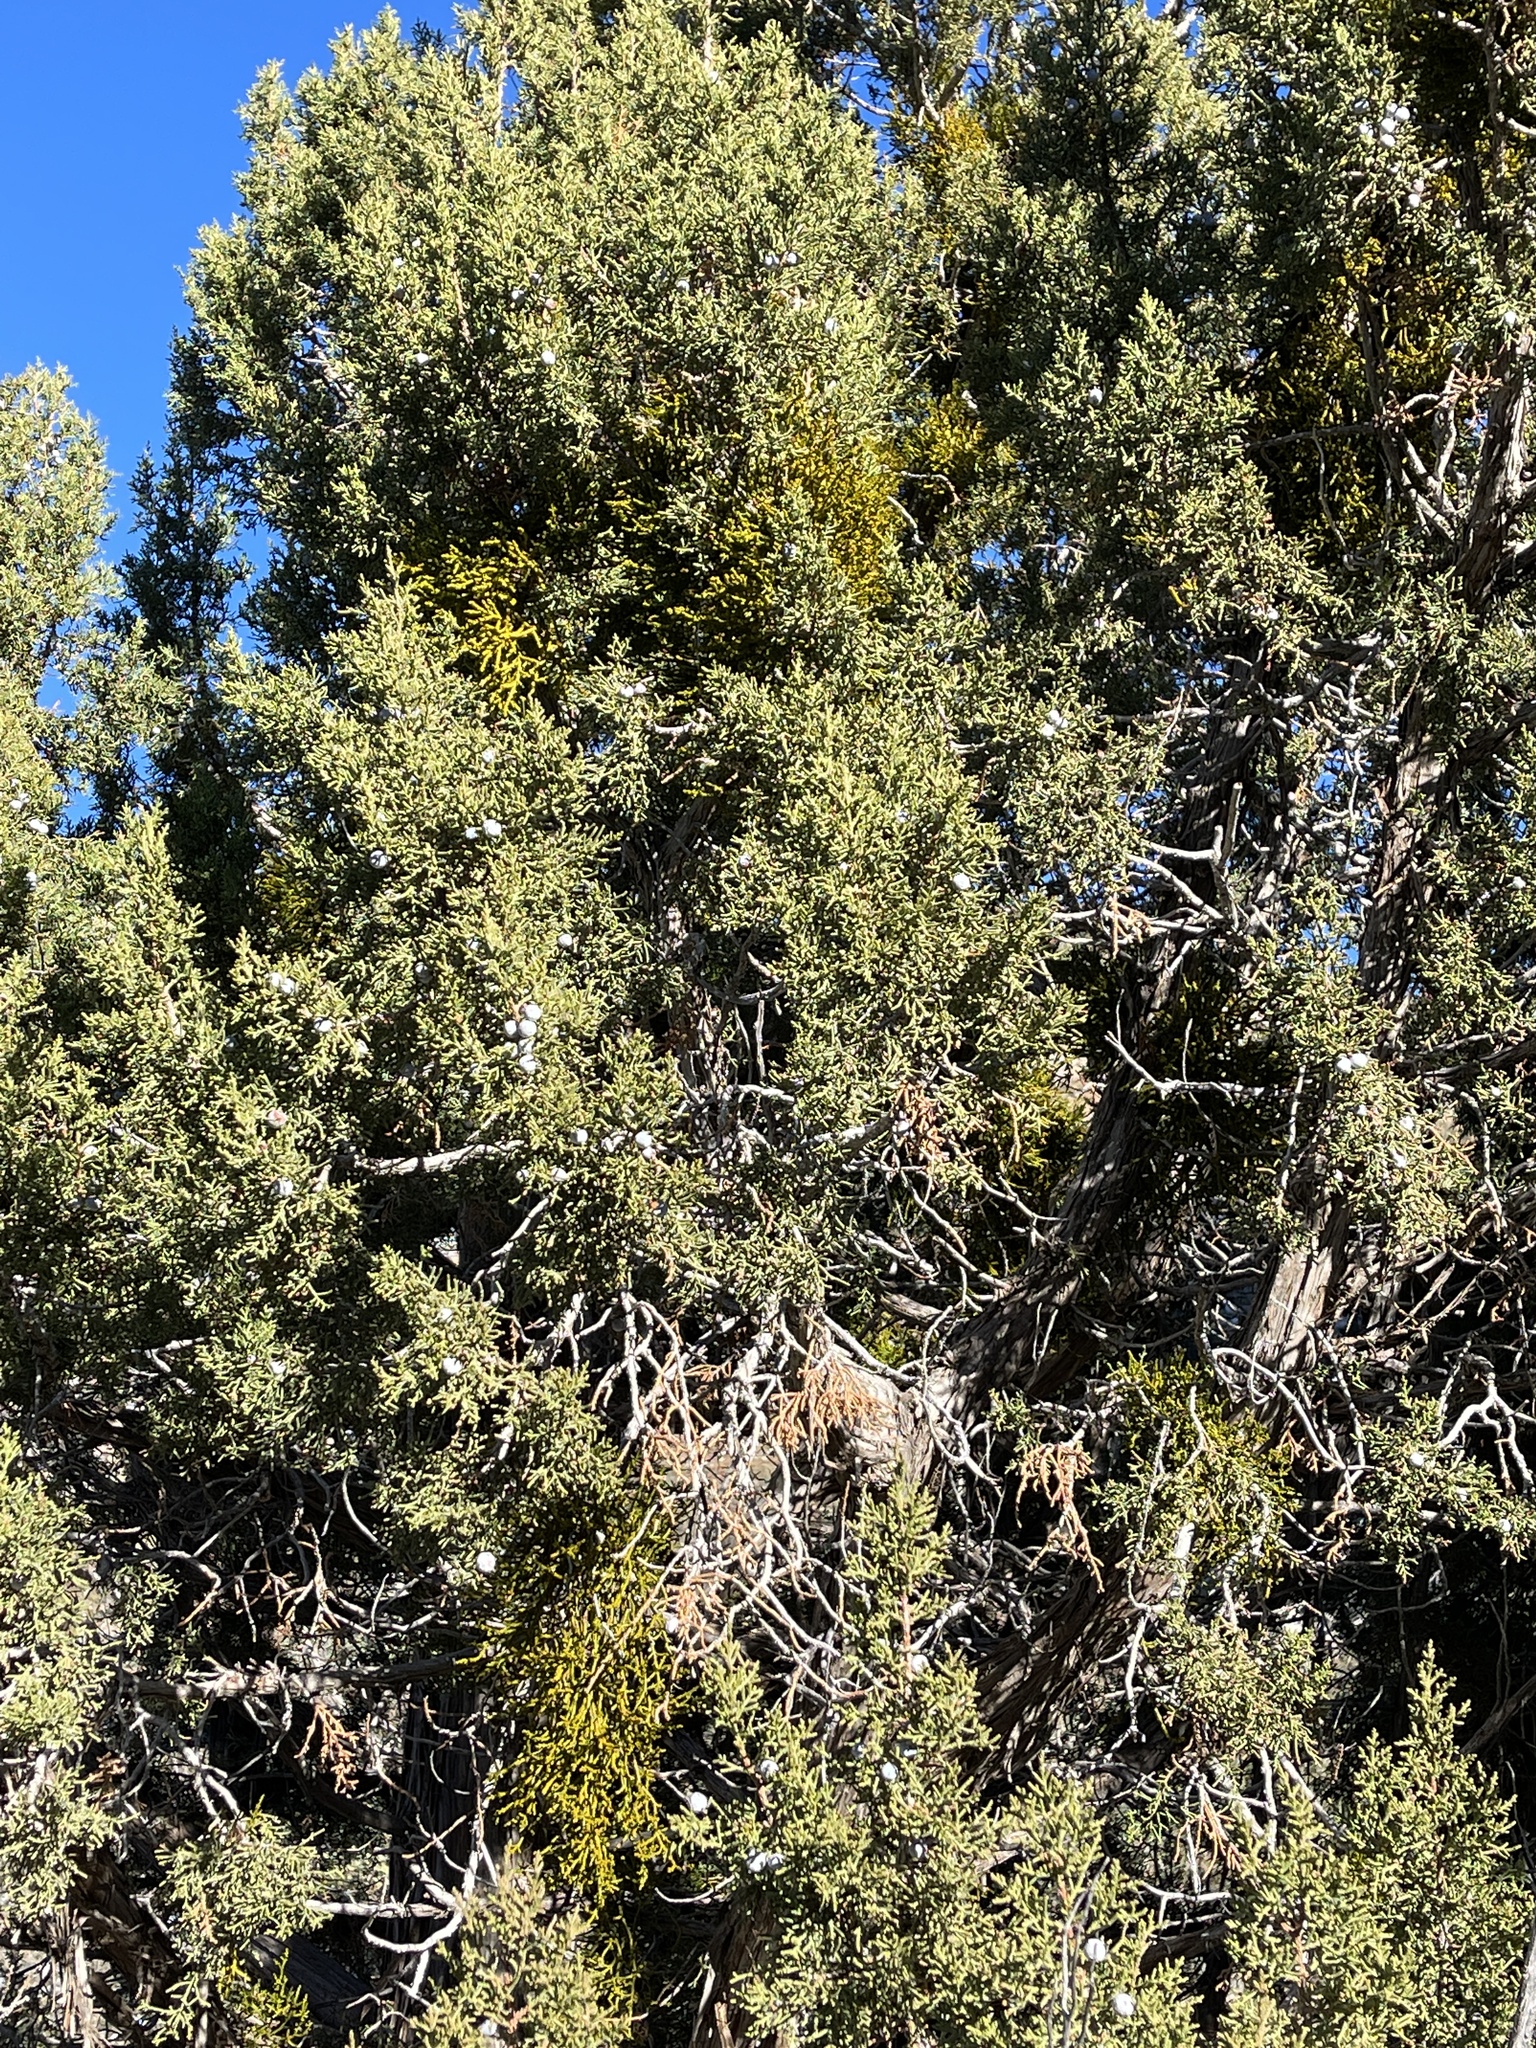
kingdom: Plantae
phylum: Tracheophyta
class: Magnoliopsida
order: Santalales
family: Viscaceae
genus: Phoradendron
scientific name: Phoradendron juniperinum
